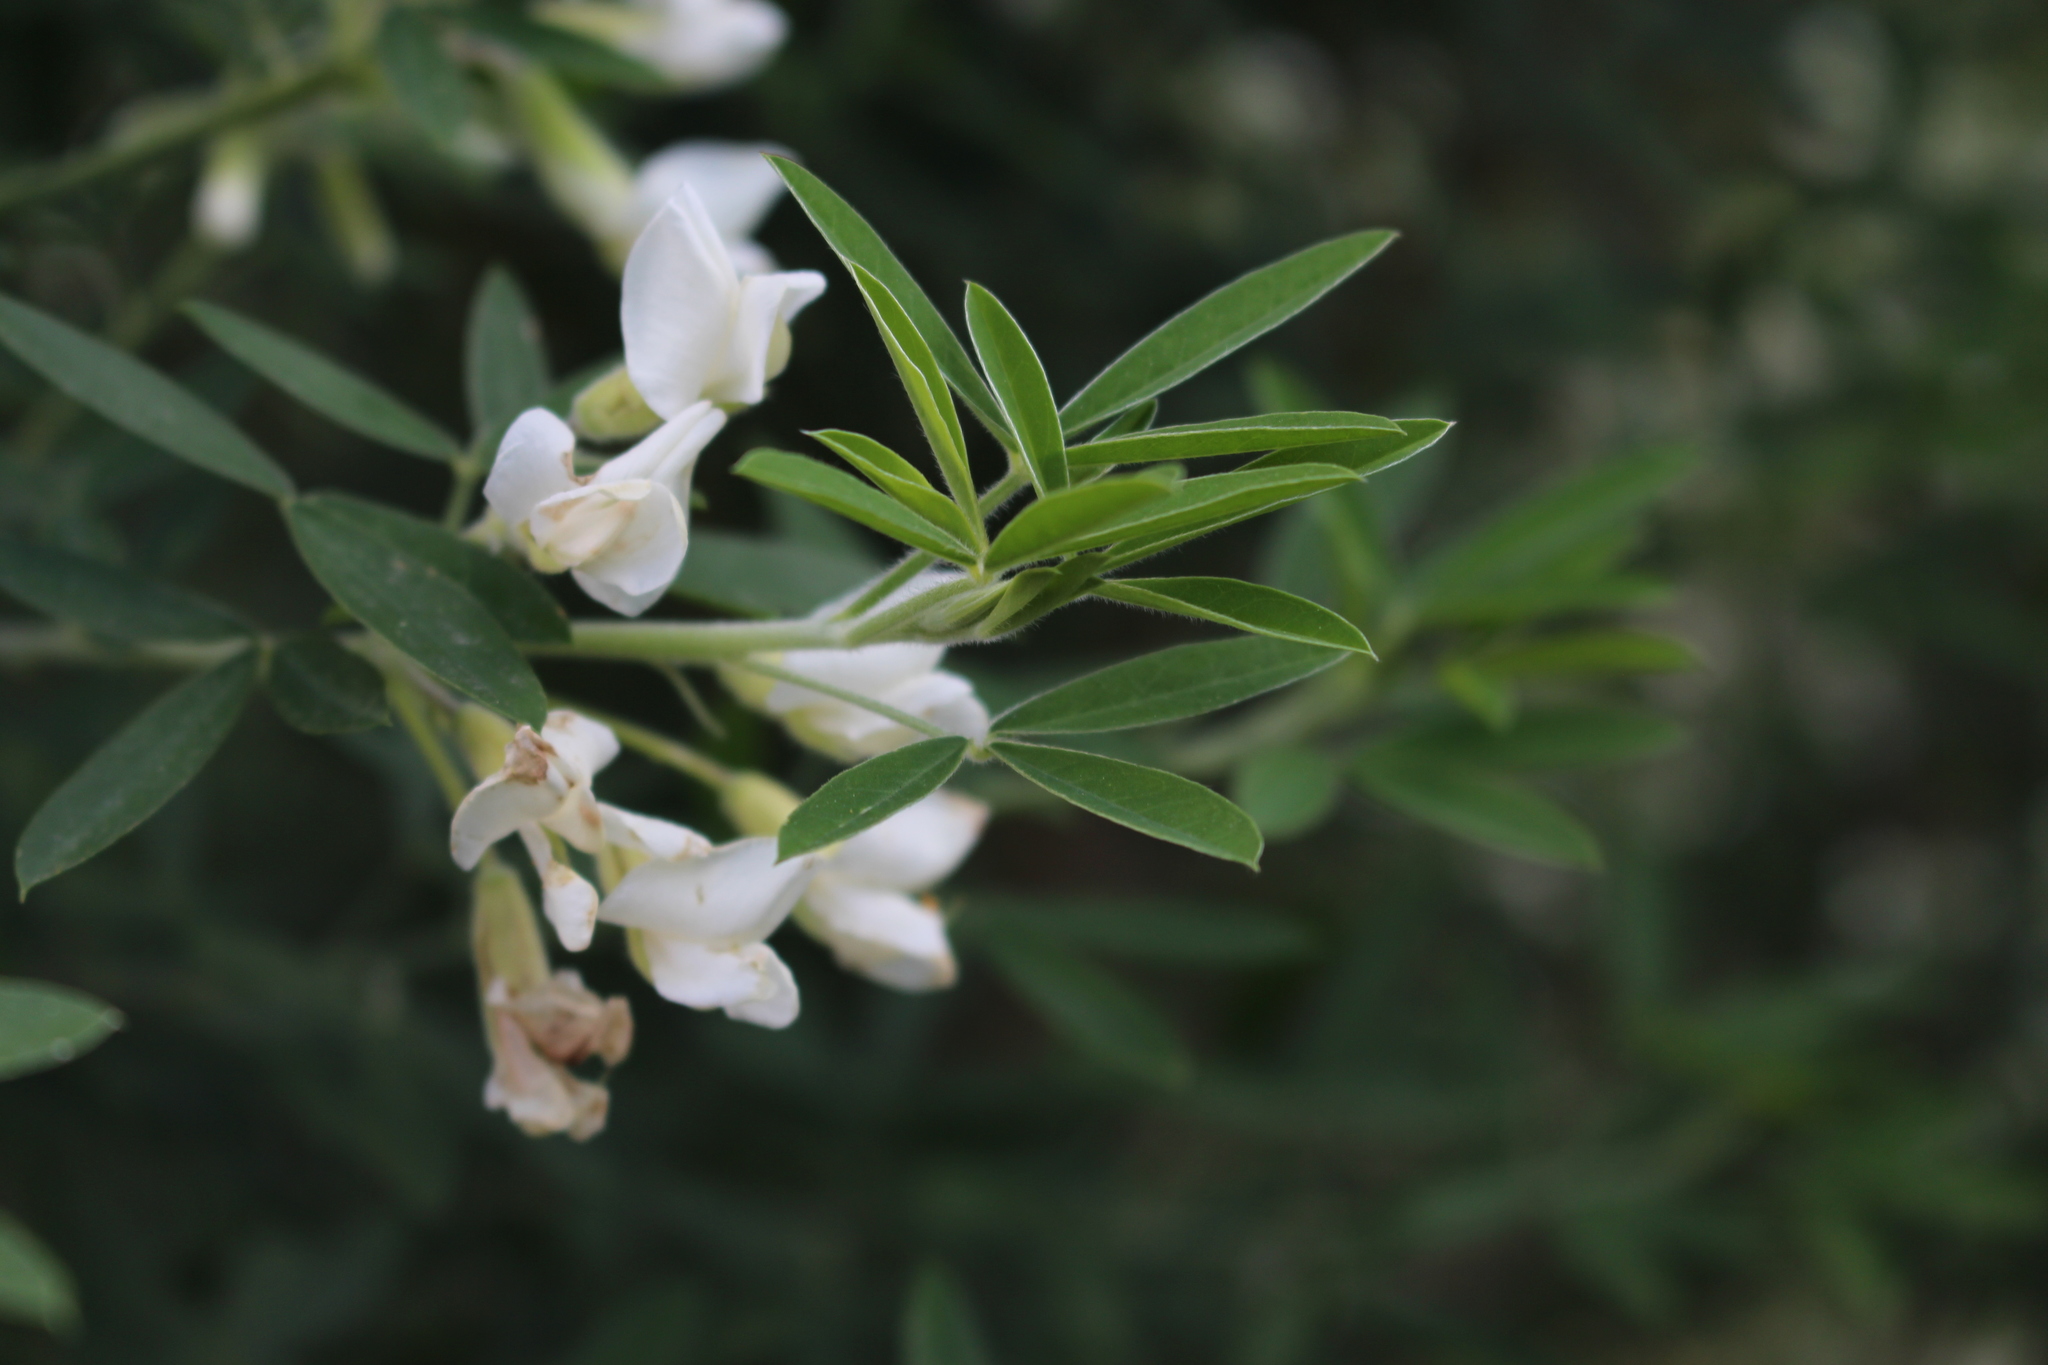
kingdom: Plantae
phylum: Tracheophyta
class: Magnoliopsida
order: Fabales
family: Fabaceae
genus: Chamaecytisus
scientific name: Chamaecytisus prolifer
